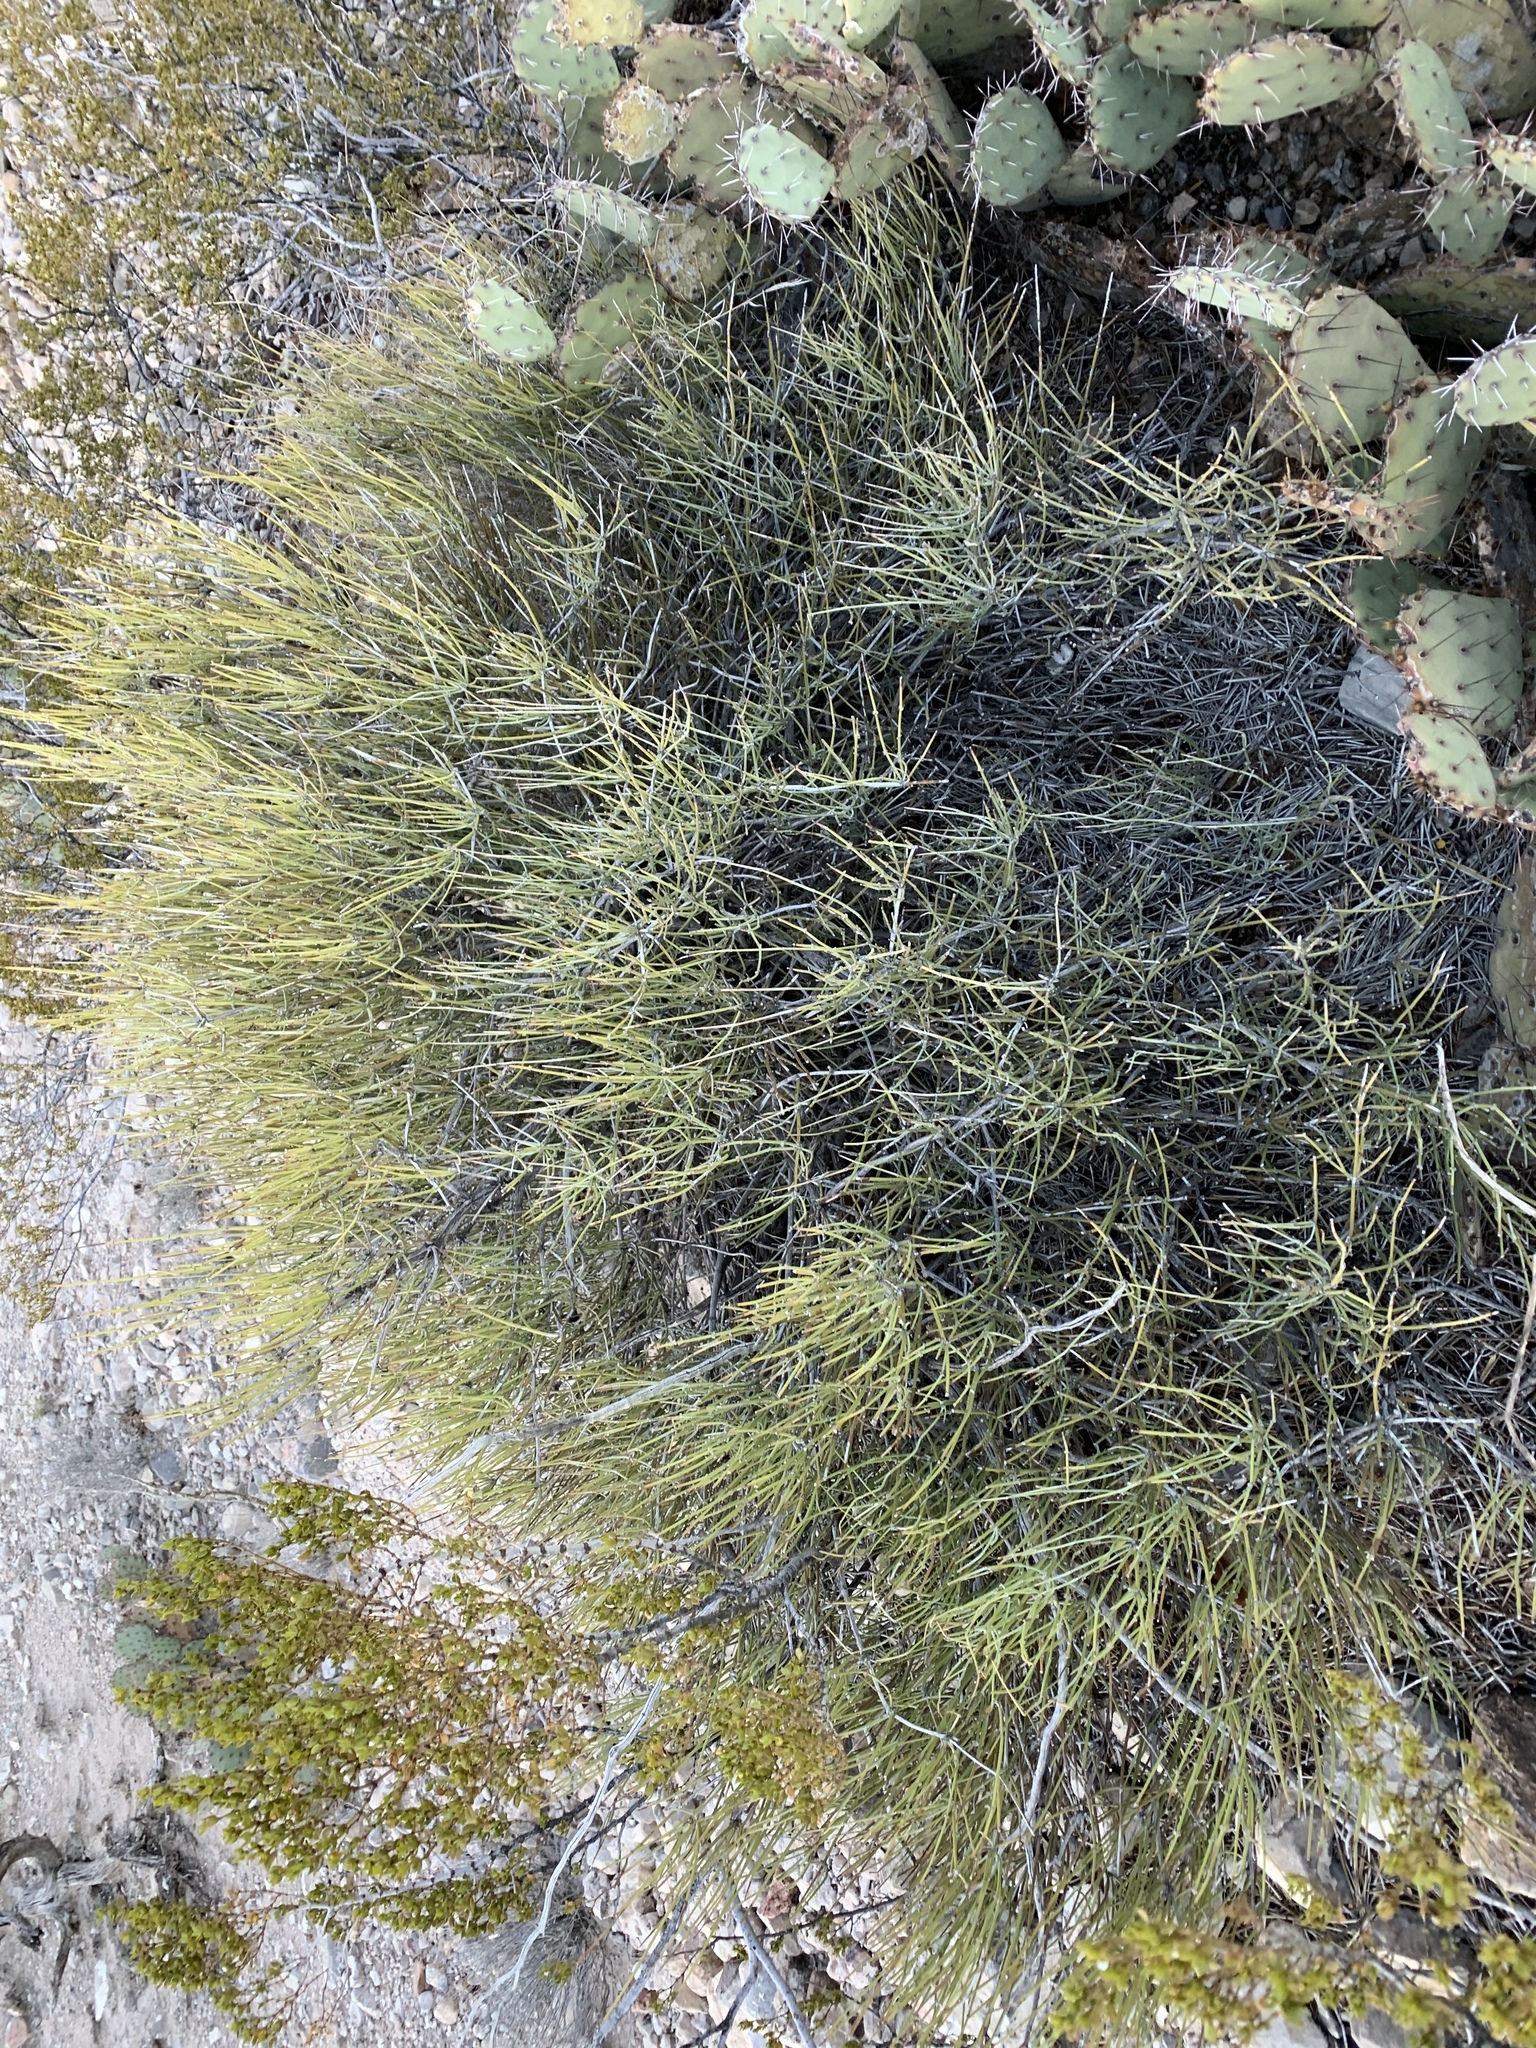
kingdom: Plantae
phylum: Tracheophyta
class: Gnetopsida
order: Ephedrales
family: Ephedraceae
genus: Ephedra
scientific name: Ephedra aspera
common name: Boundary ephedra
